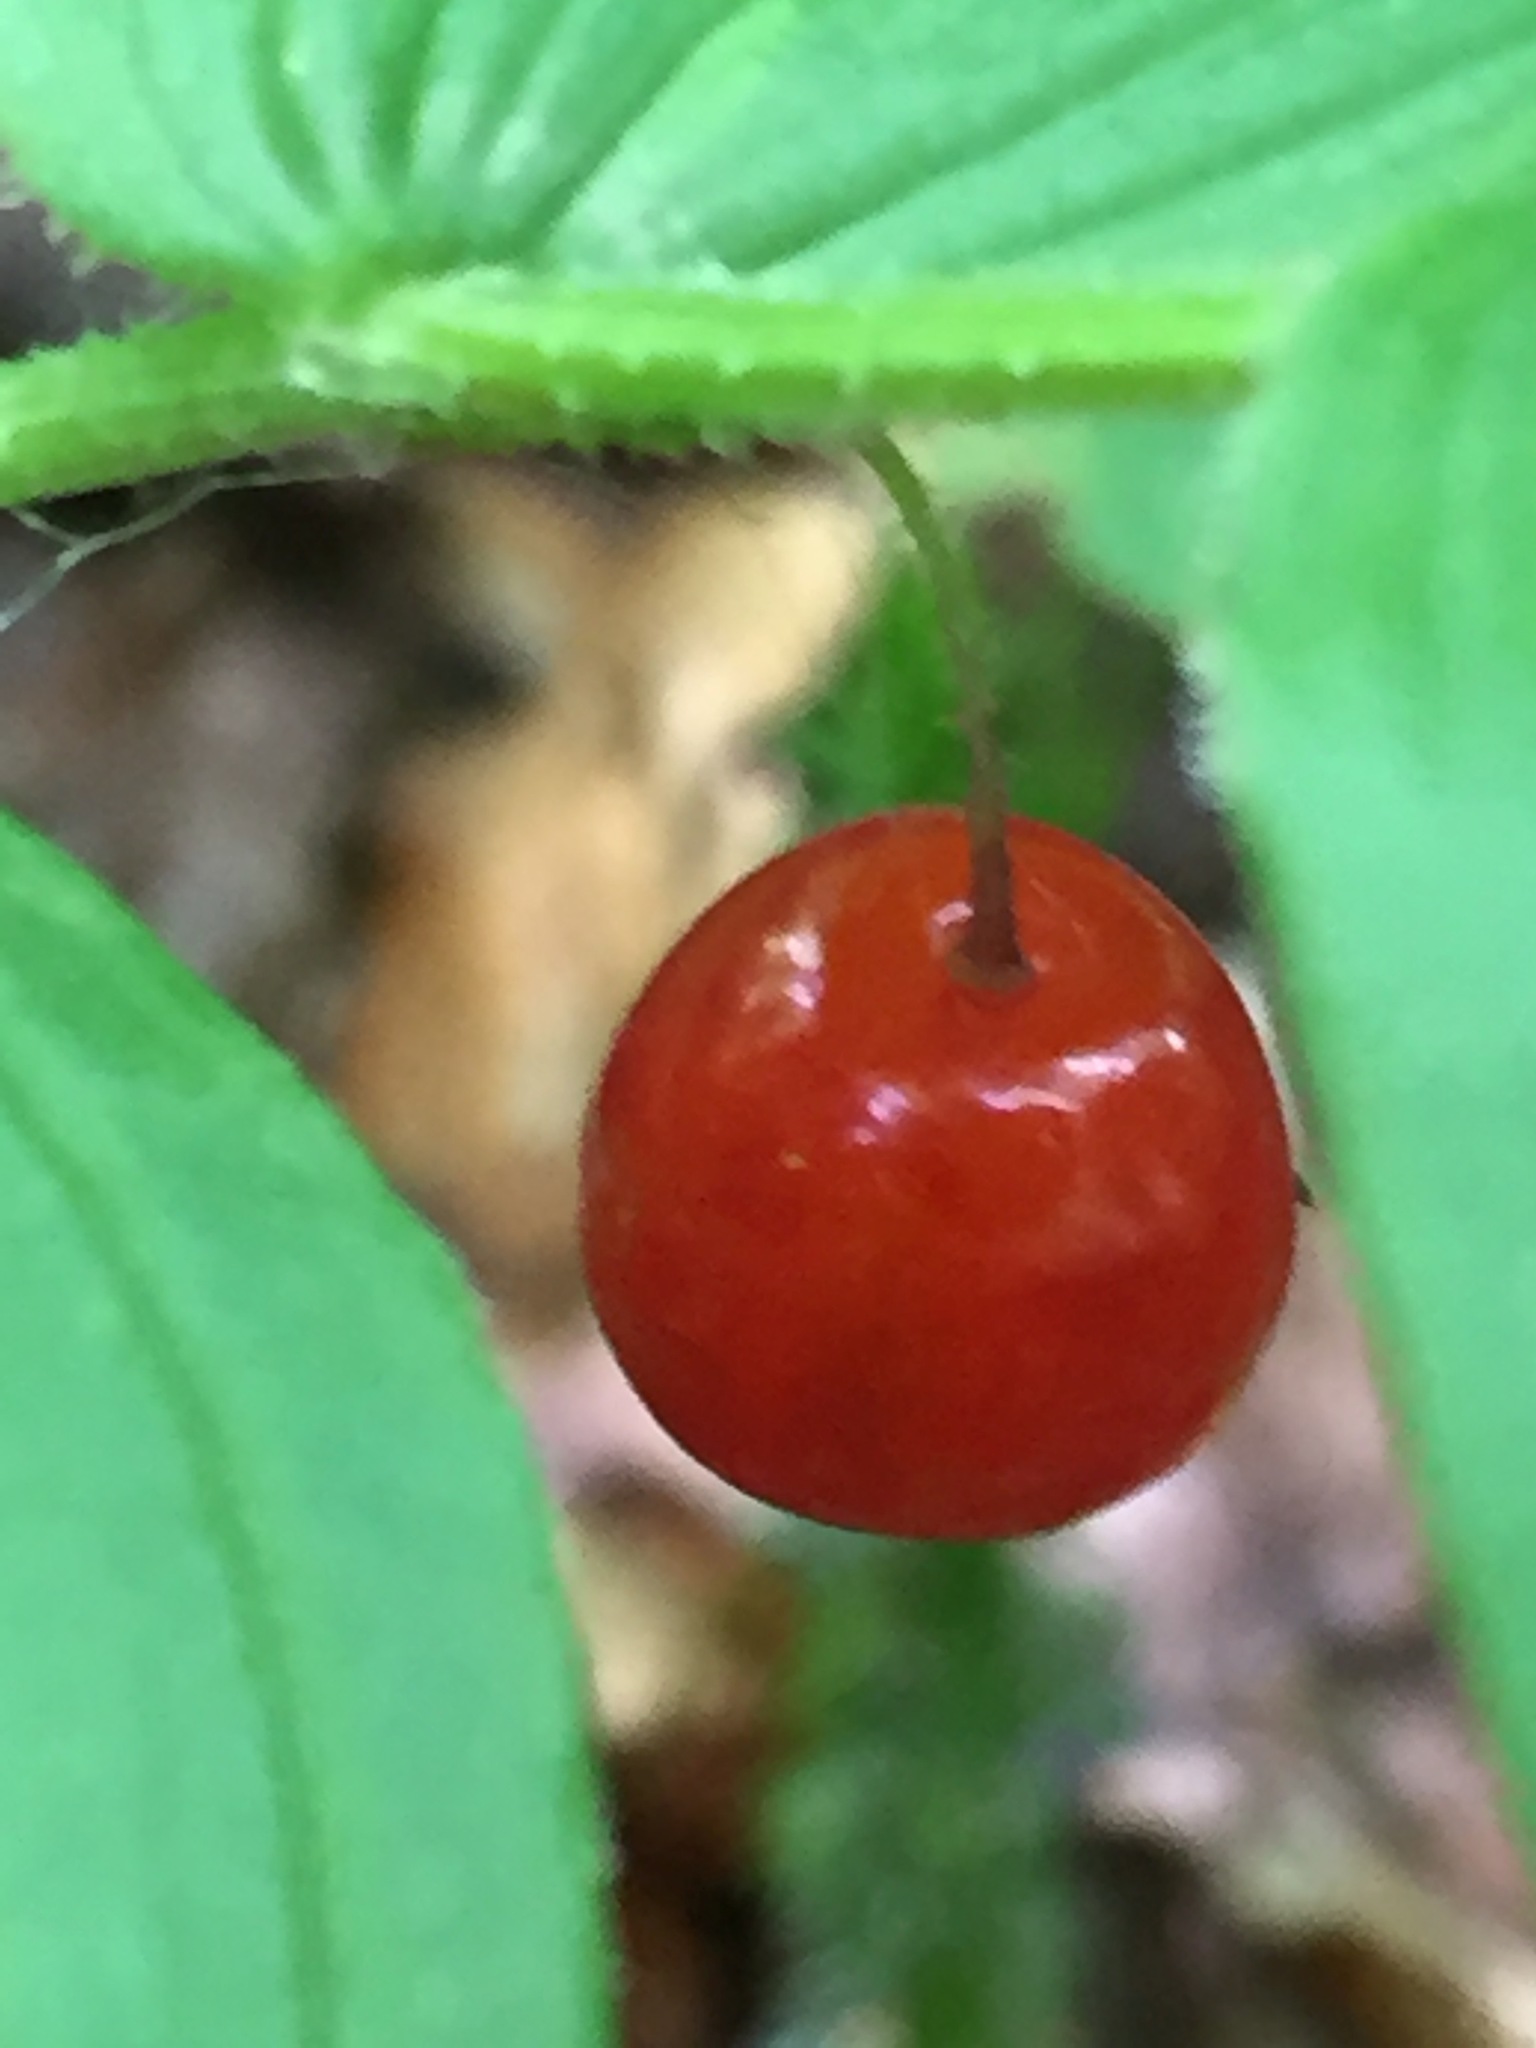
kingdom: Plantae
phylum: Tracheophyta
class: Liliopsida
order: Liliales
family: Liliaceae
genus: Streptopus
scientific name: Streptopus lanceolatus
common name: Rose mandarin
